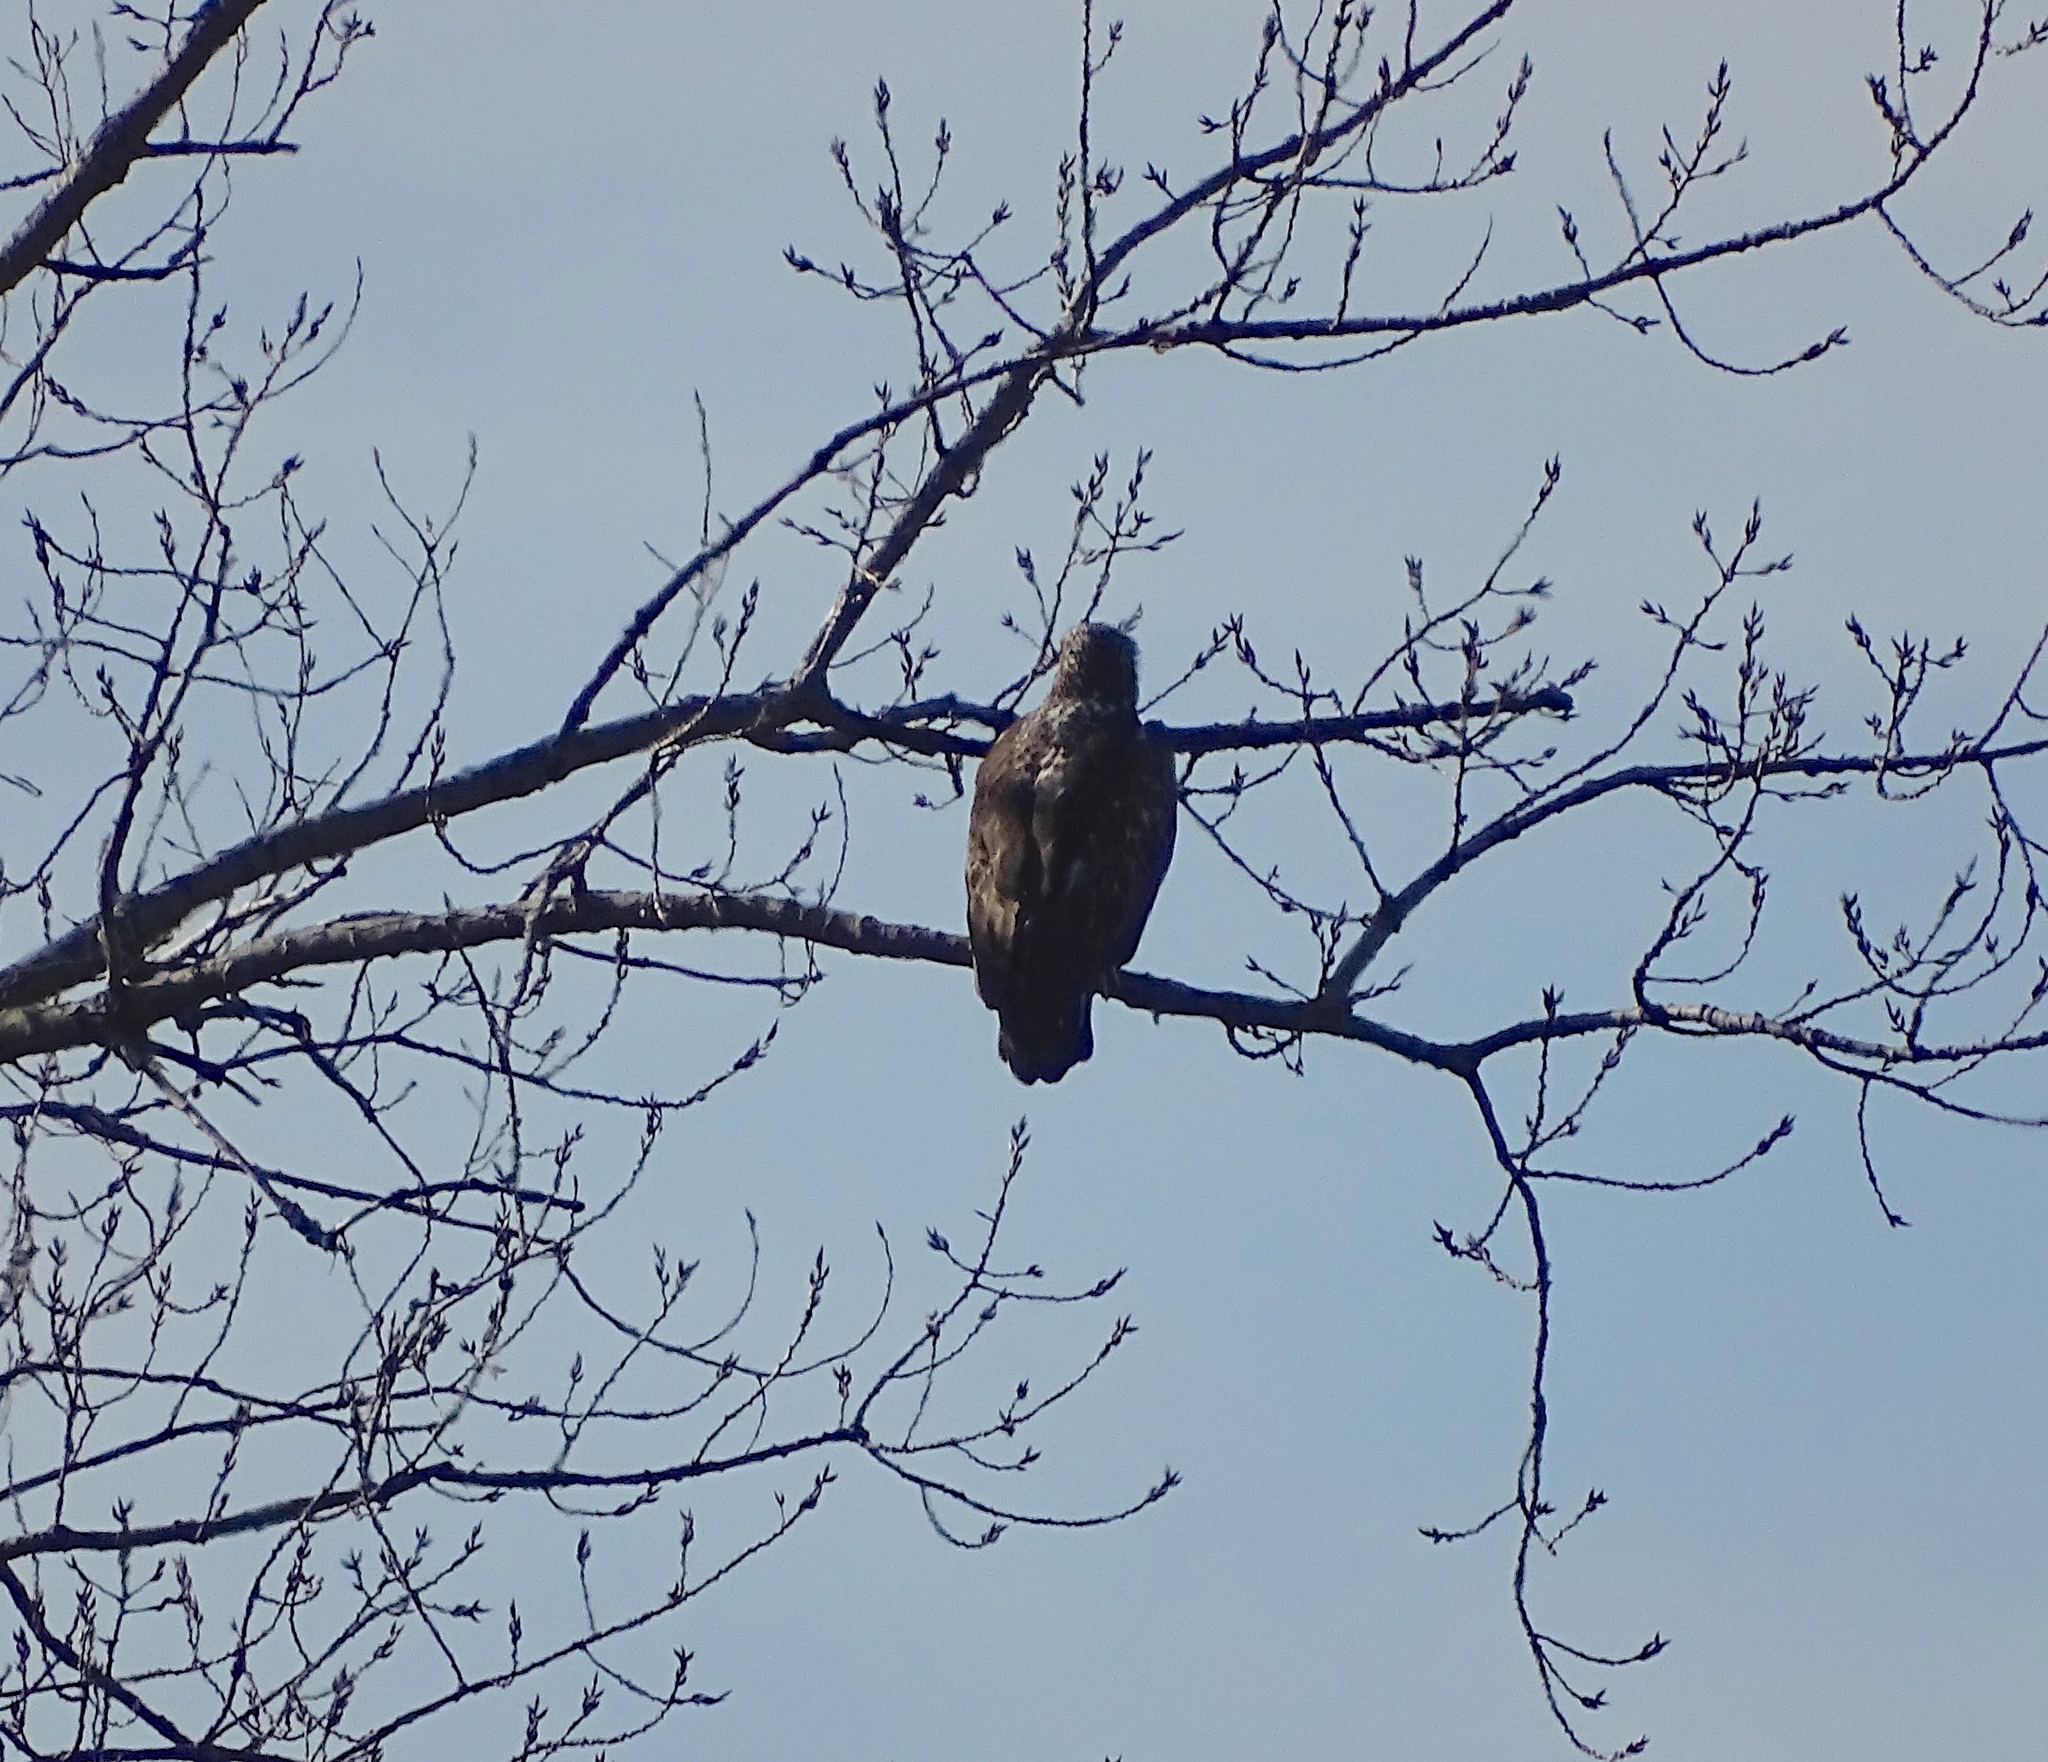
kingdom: Animalia
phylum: Chordata
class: Aves
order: Accipitriformes
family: Accipitridae
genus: Haliaeetus
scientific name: Haliaeetus leucocephalus
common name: Bald eagle
